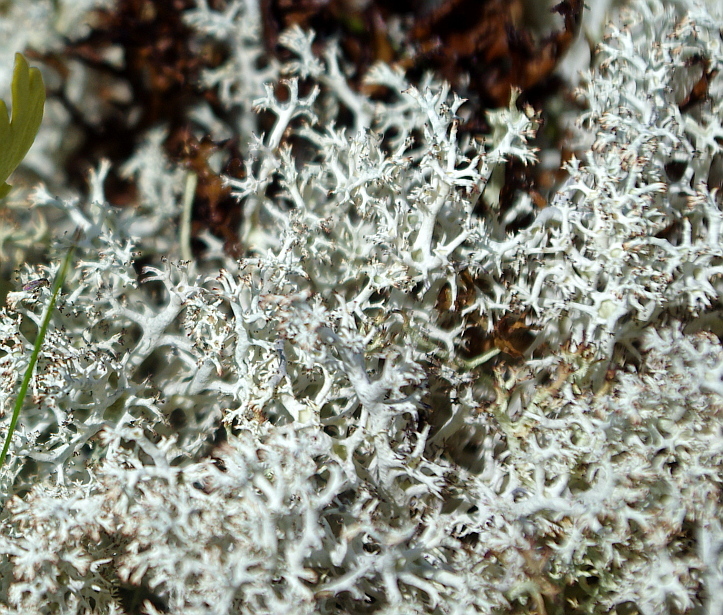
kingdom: Fungi
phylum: Ascomycota
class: Lecanoromycetes
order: Lecanorales
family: Cladoniaceae
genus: Cladonia
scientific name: Cladonia rangiferina
